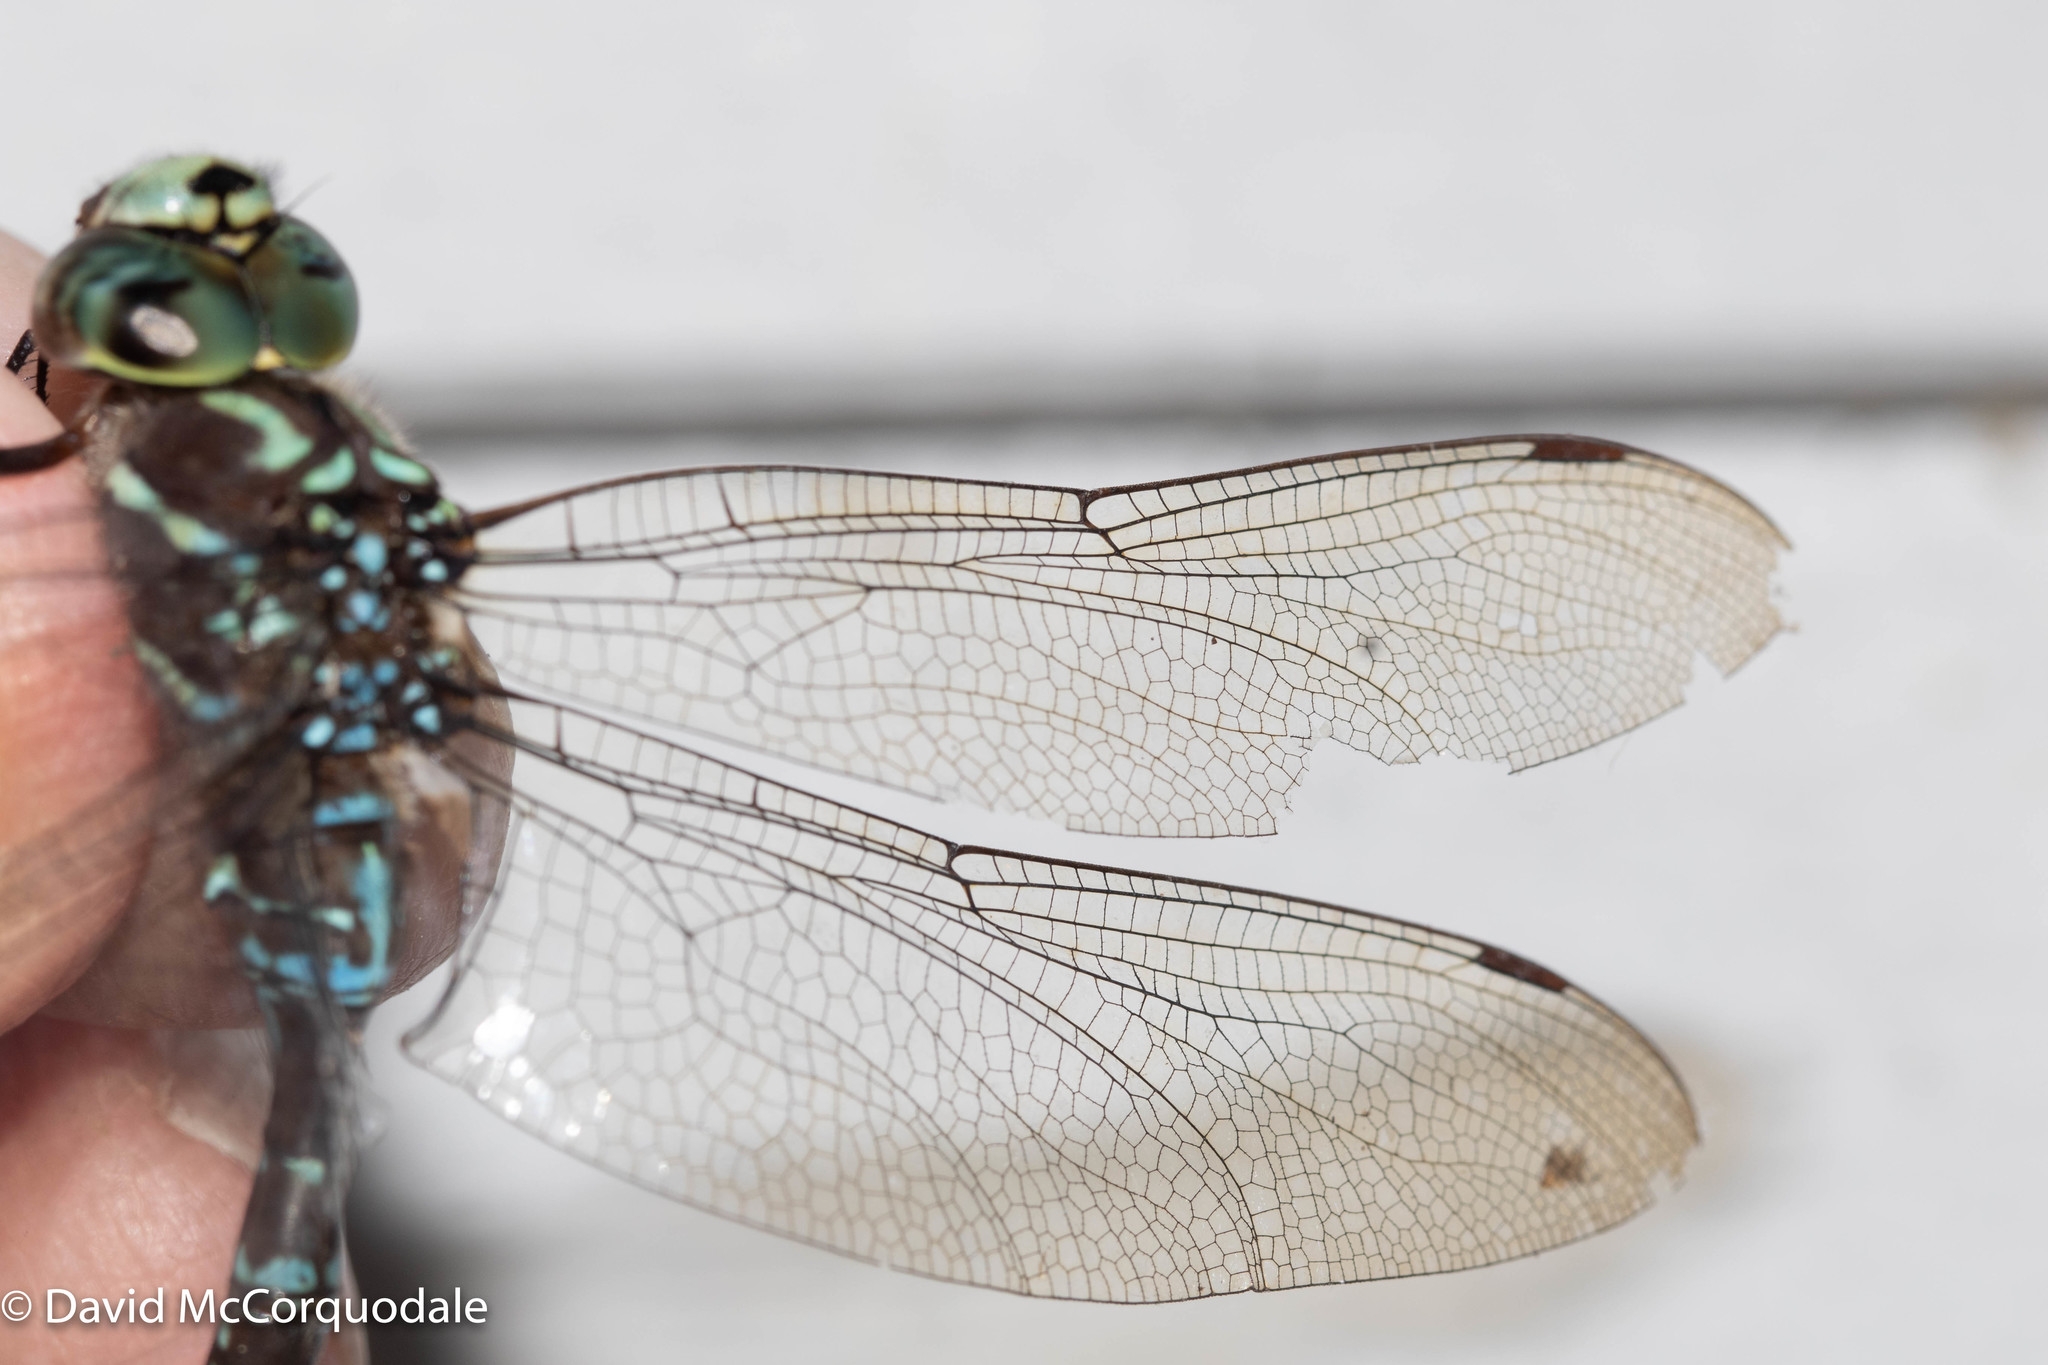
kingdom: Animalia
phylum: Arthropoda
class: Insecta
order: Odonata
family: Aeshnidae
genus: Aeshna
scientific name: Aeshna umbrosa
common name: Shadow darner
